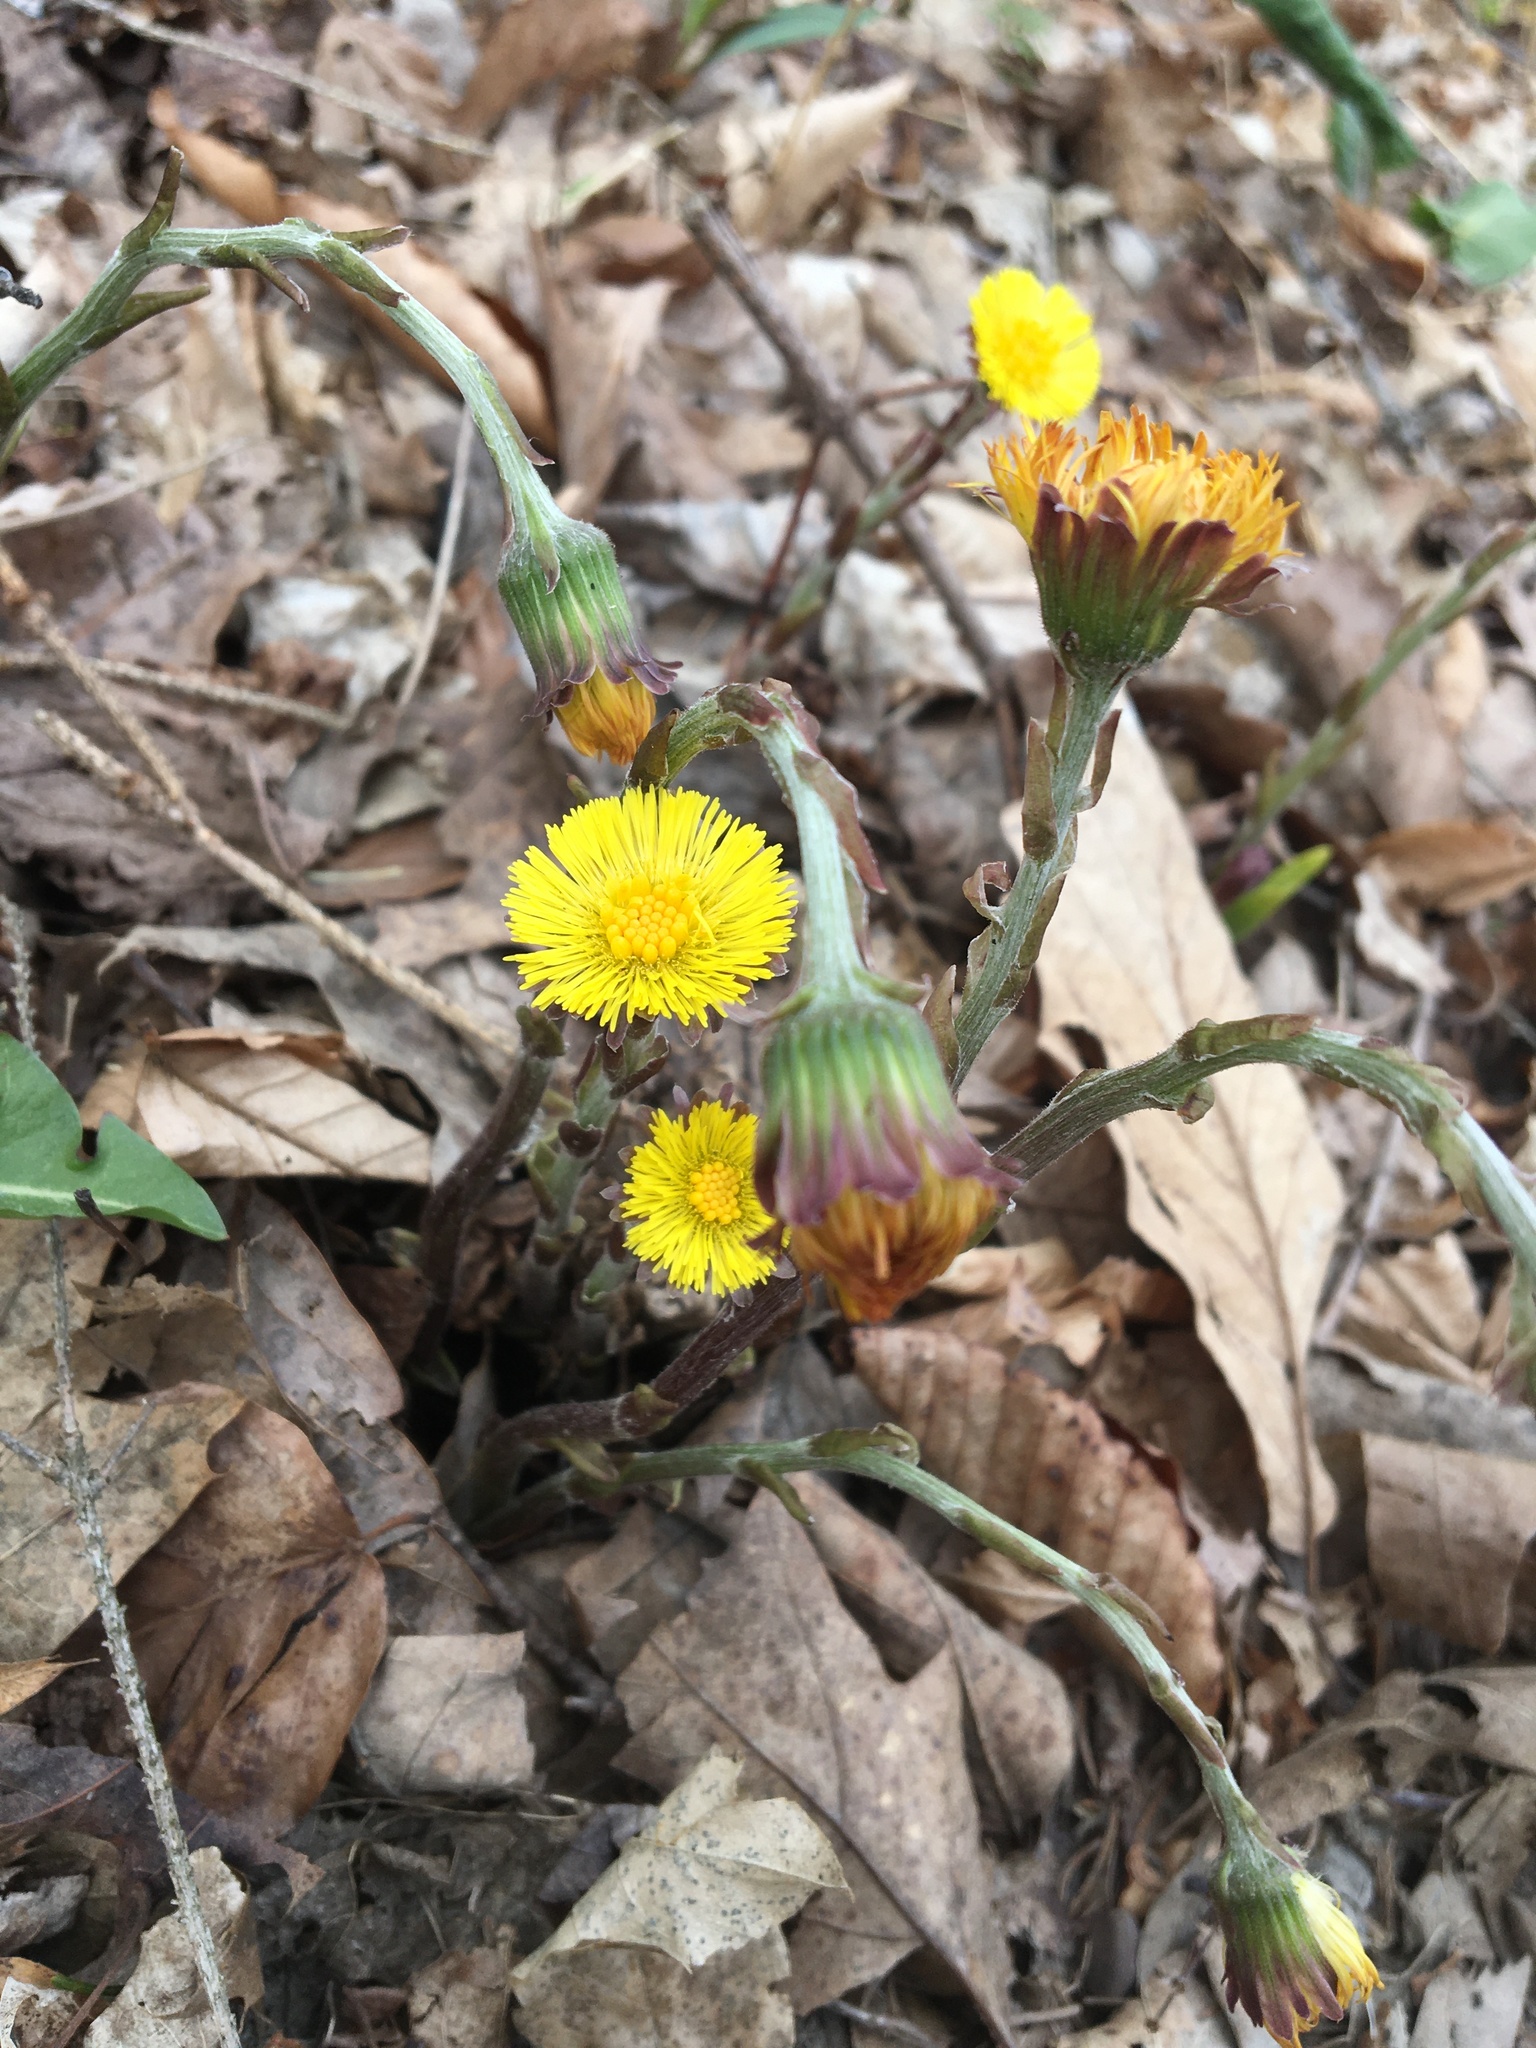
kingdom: Plantae
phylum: Tracheophyta
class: Magnoliopsida
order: Asterales
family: Asteraceae
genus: Tussilago
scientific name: Tussilago farfara
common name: Coltsfoot
